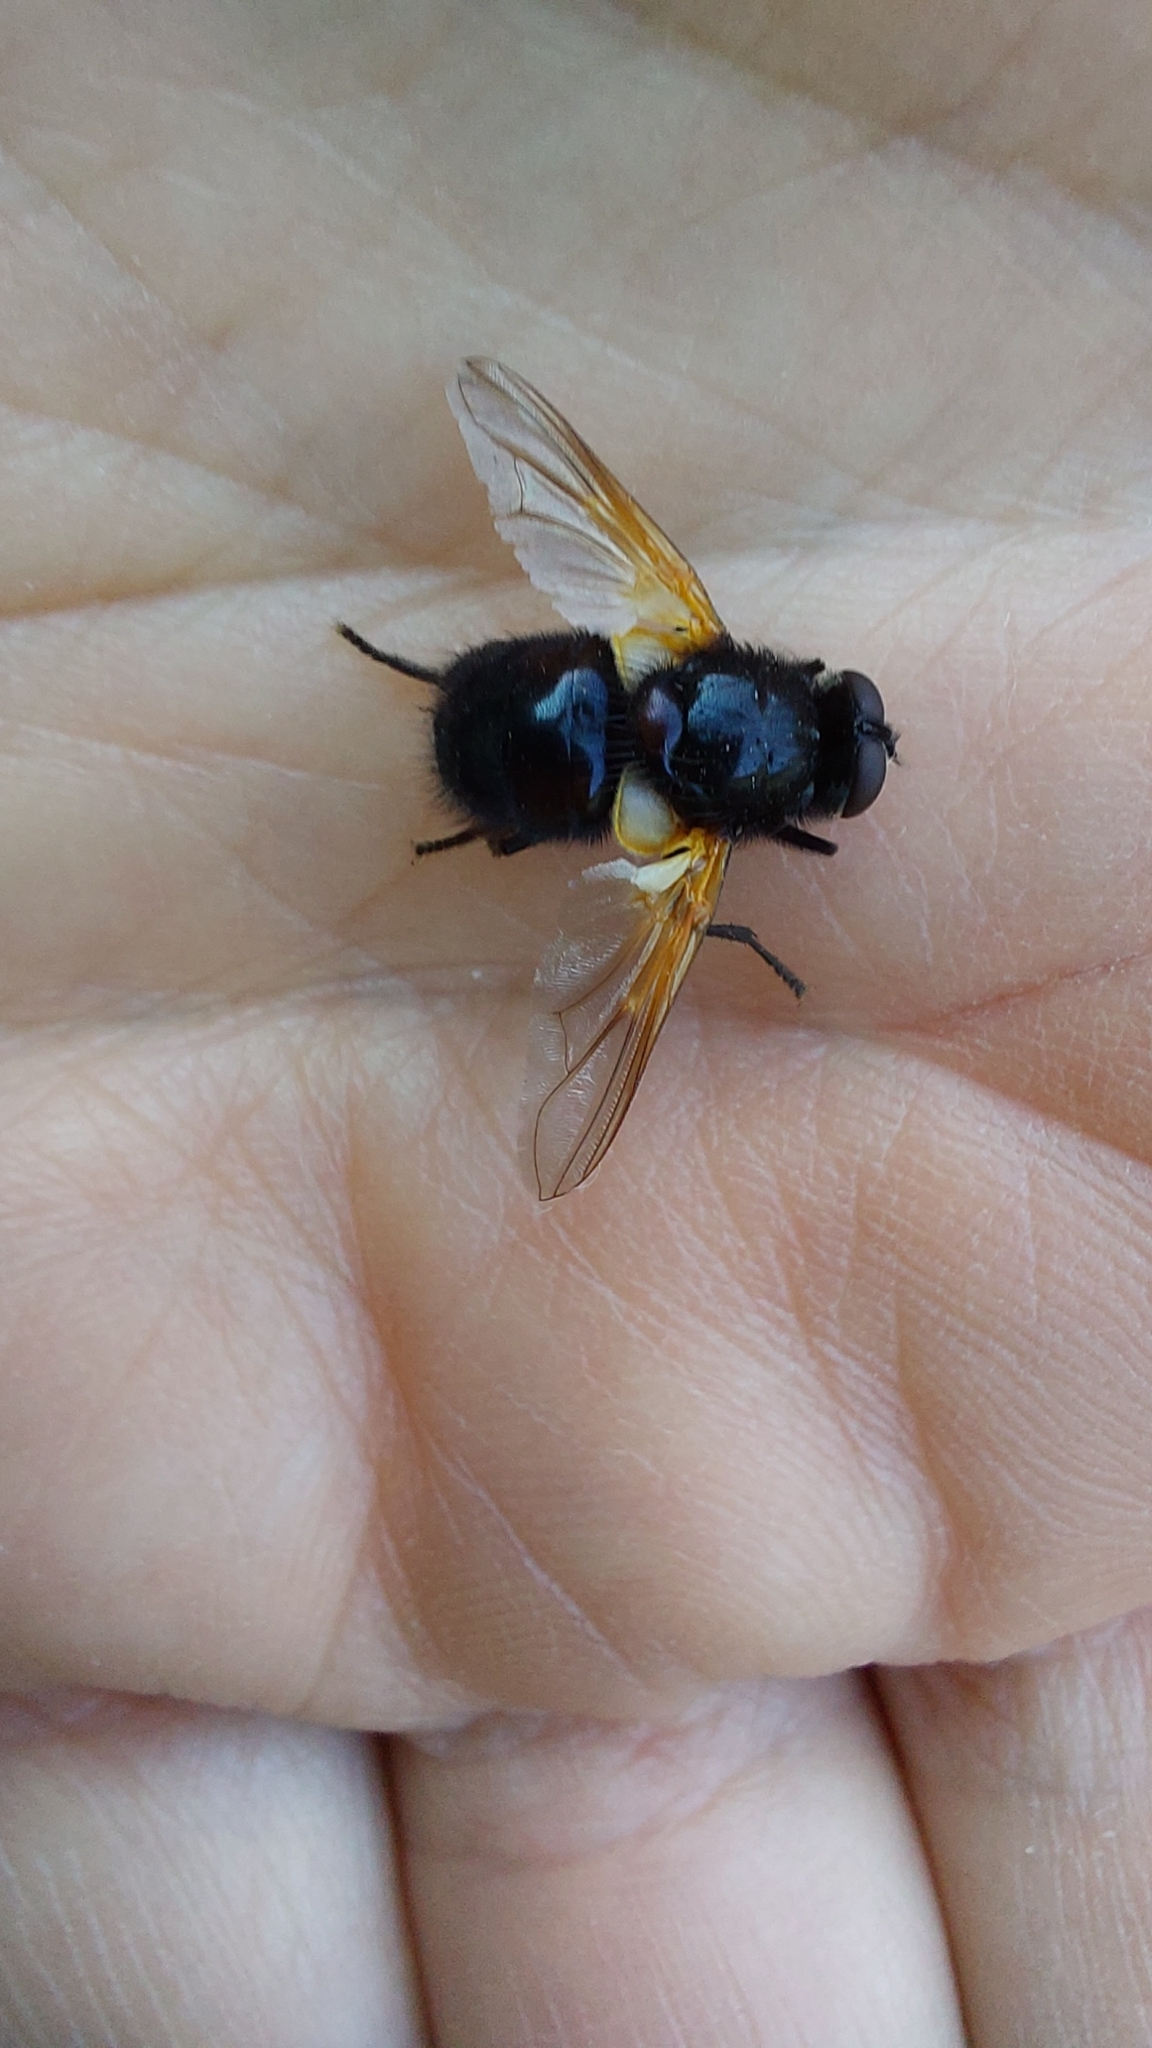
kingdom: Animalia
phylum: Arthropoda
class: Insecta
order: Diptera
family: Muscidae
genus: Mesembrina
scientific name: Mesembrina meridiana
